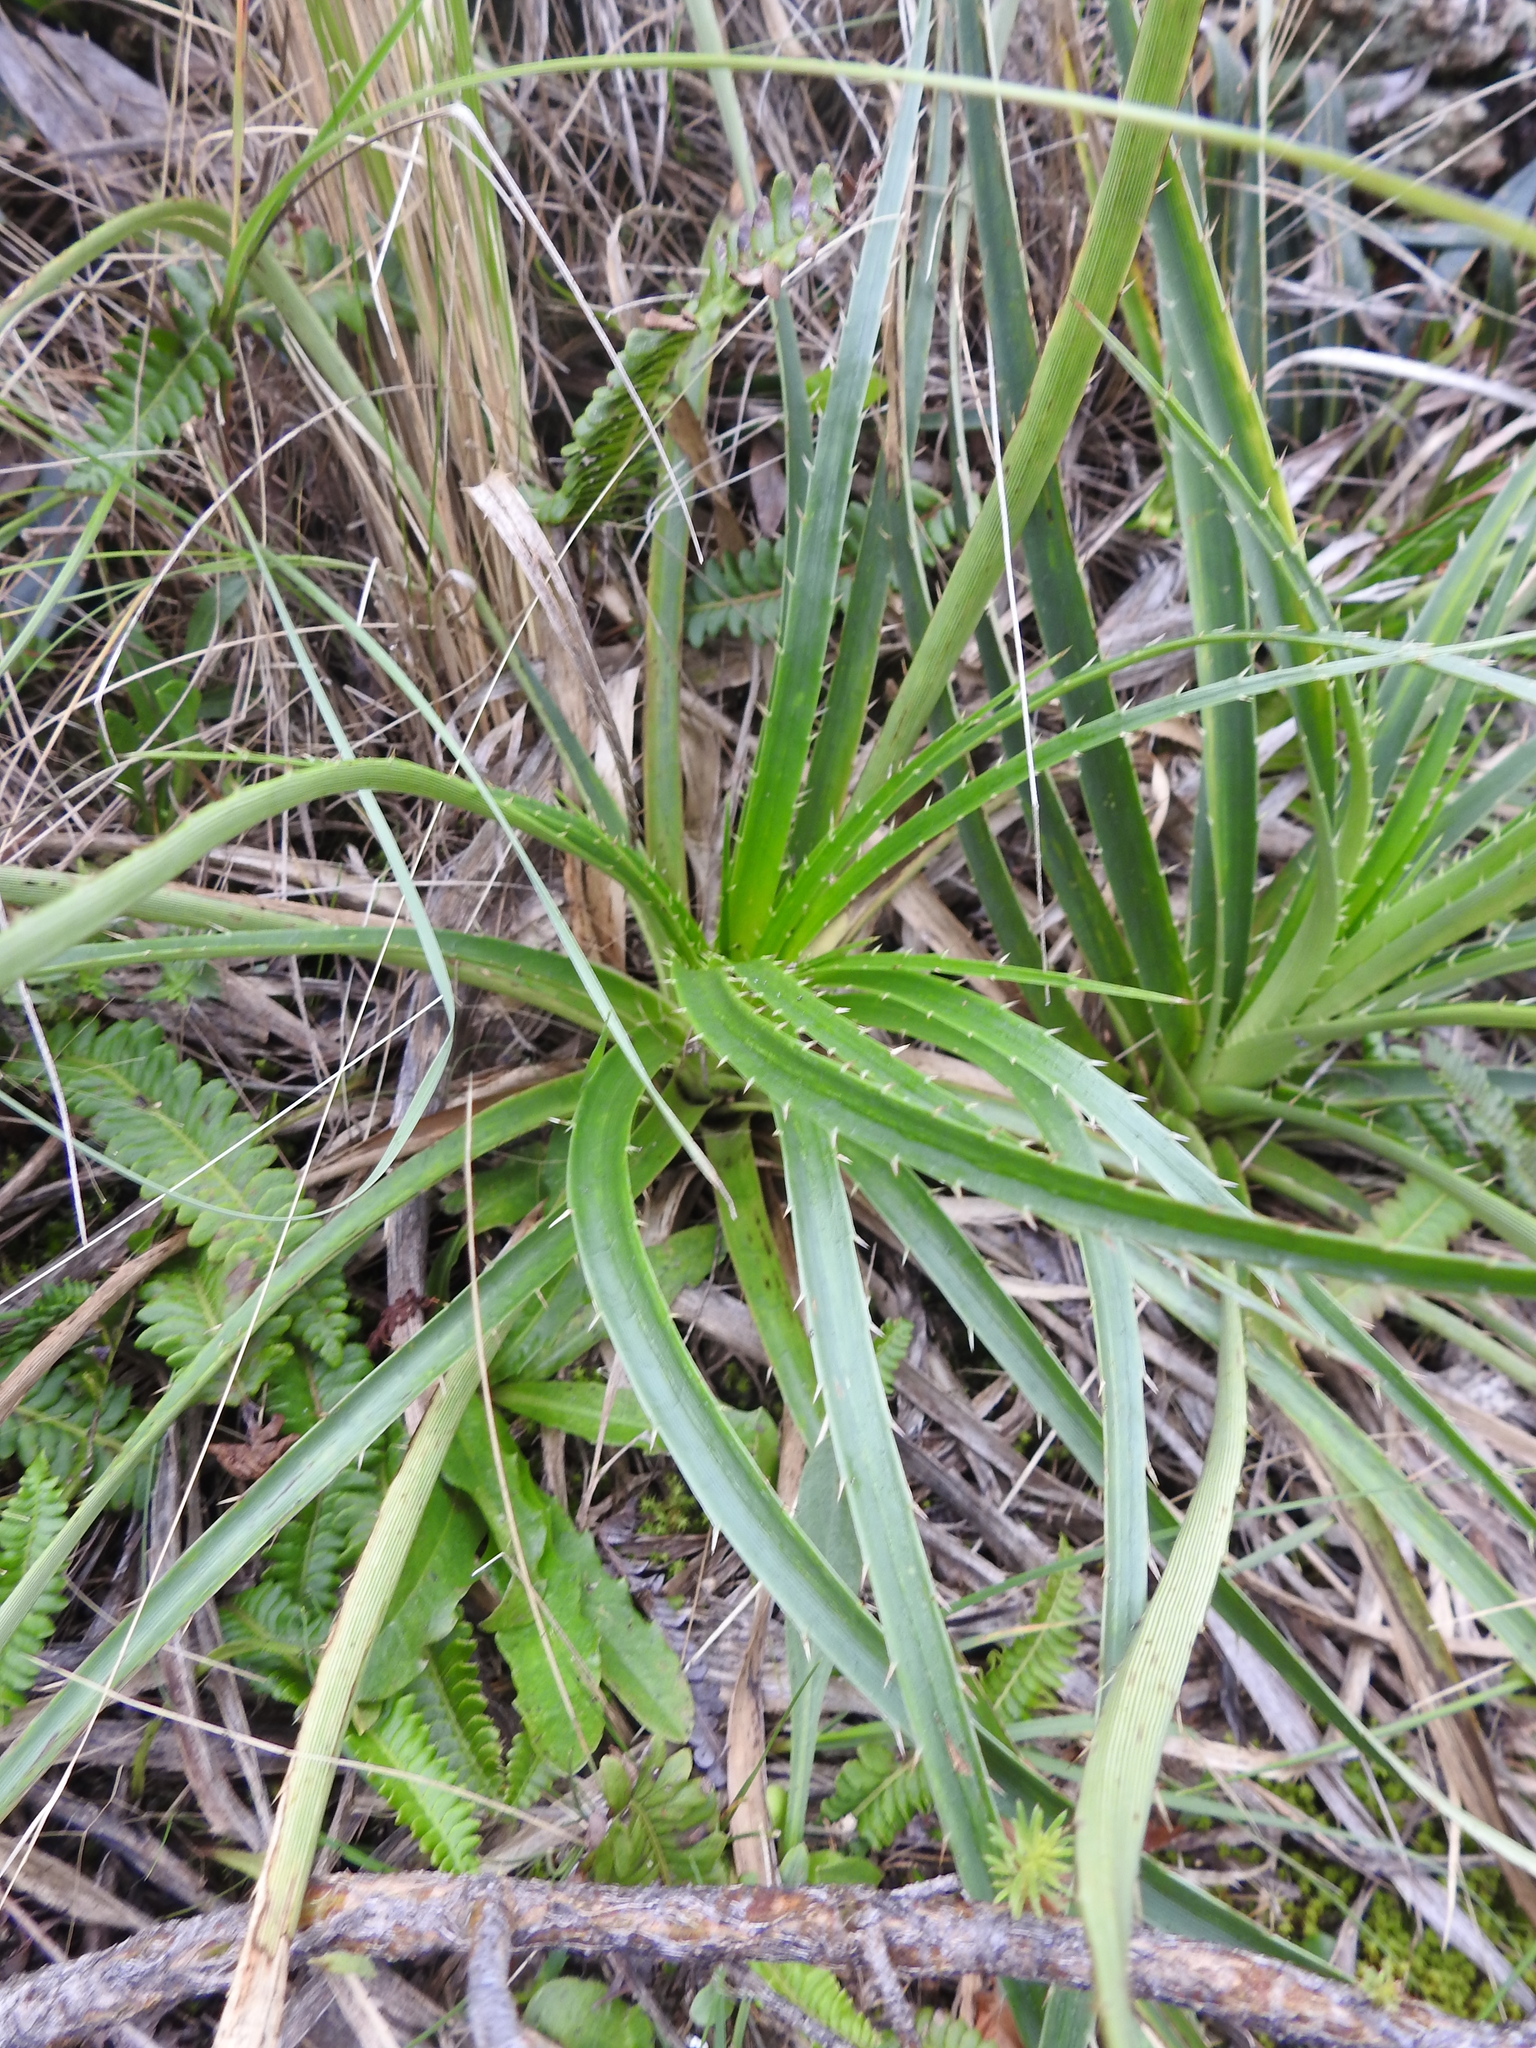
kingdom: Plantae
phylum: Tracheophyta
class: Magnoliopsida
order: Apiales
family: Apiaceae
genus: Eryngium
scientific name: Eryngium horridum
